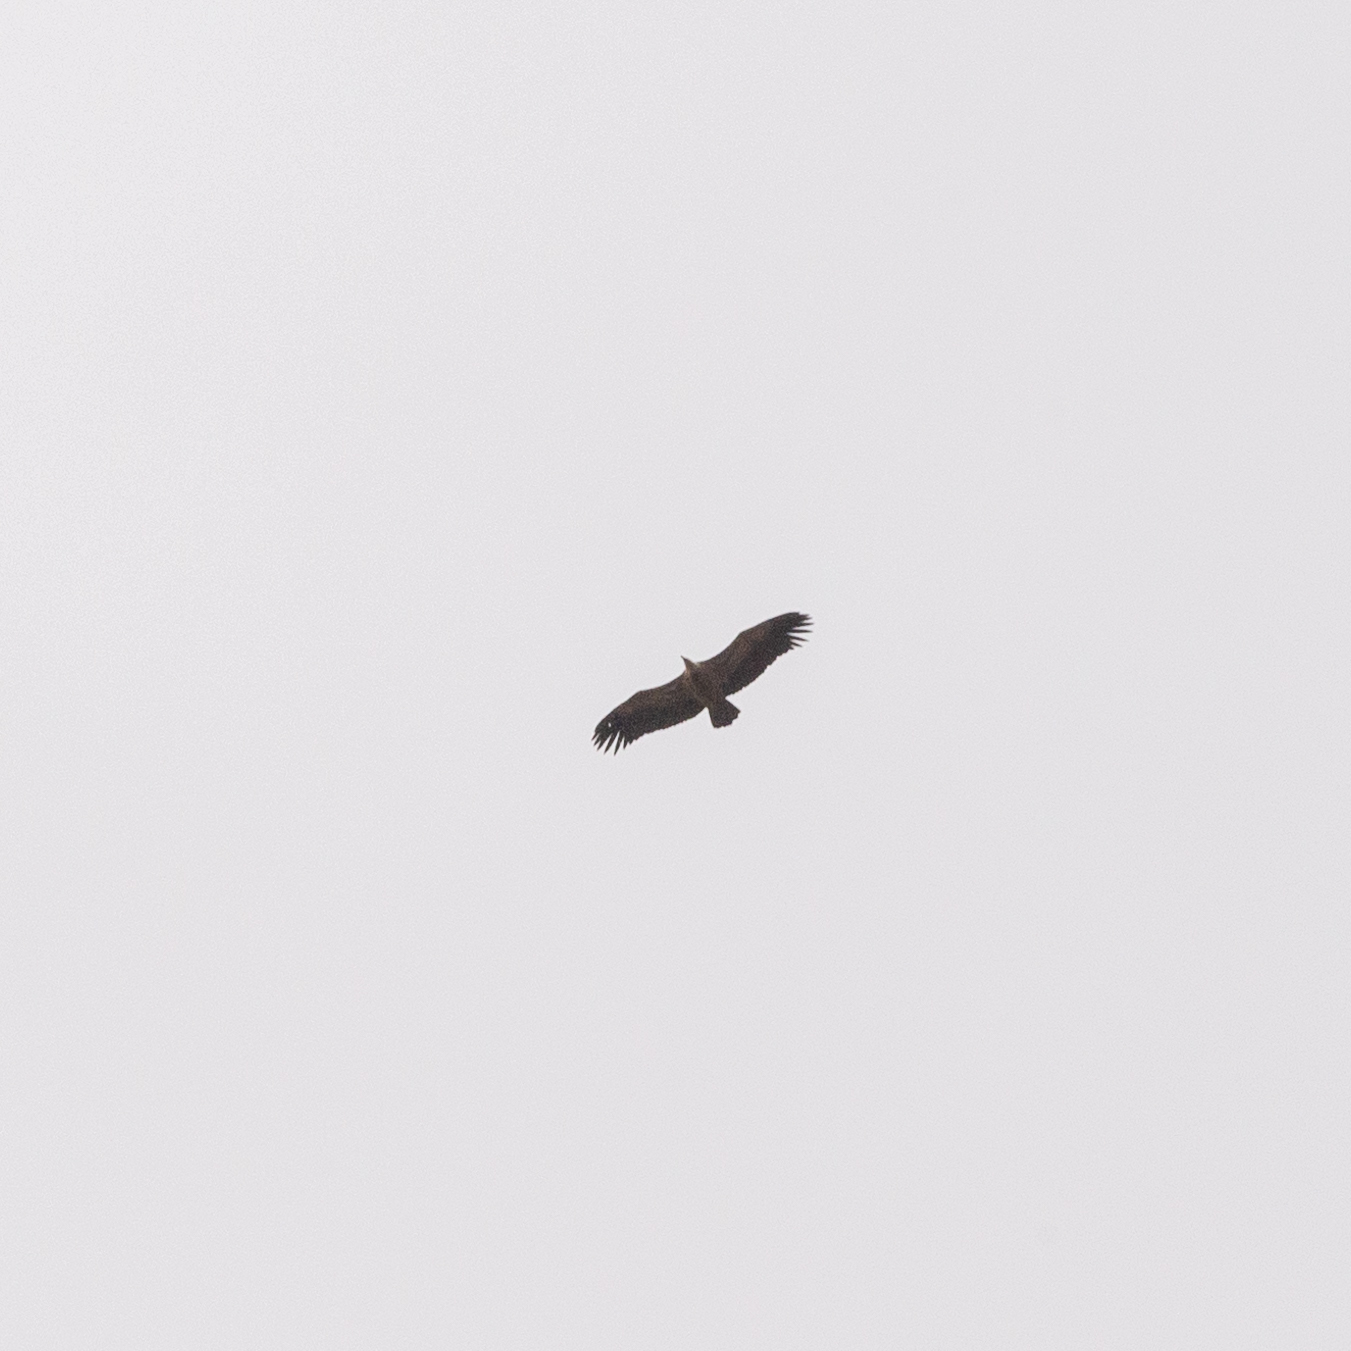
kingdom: Animalia
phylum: Chordata
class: Aves
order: Accipitriformes
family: Accipitridae
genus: Gyps
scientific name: Gyps fulvus
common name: Griffon vulture
